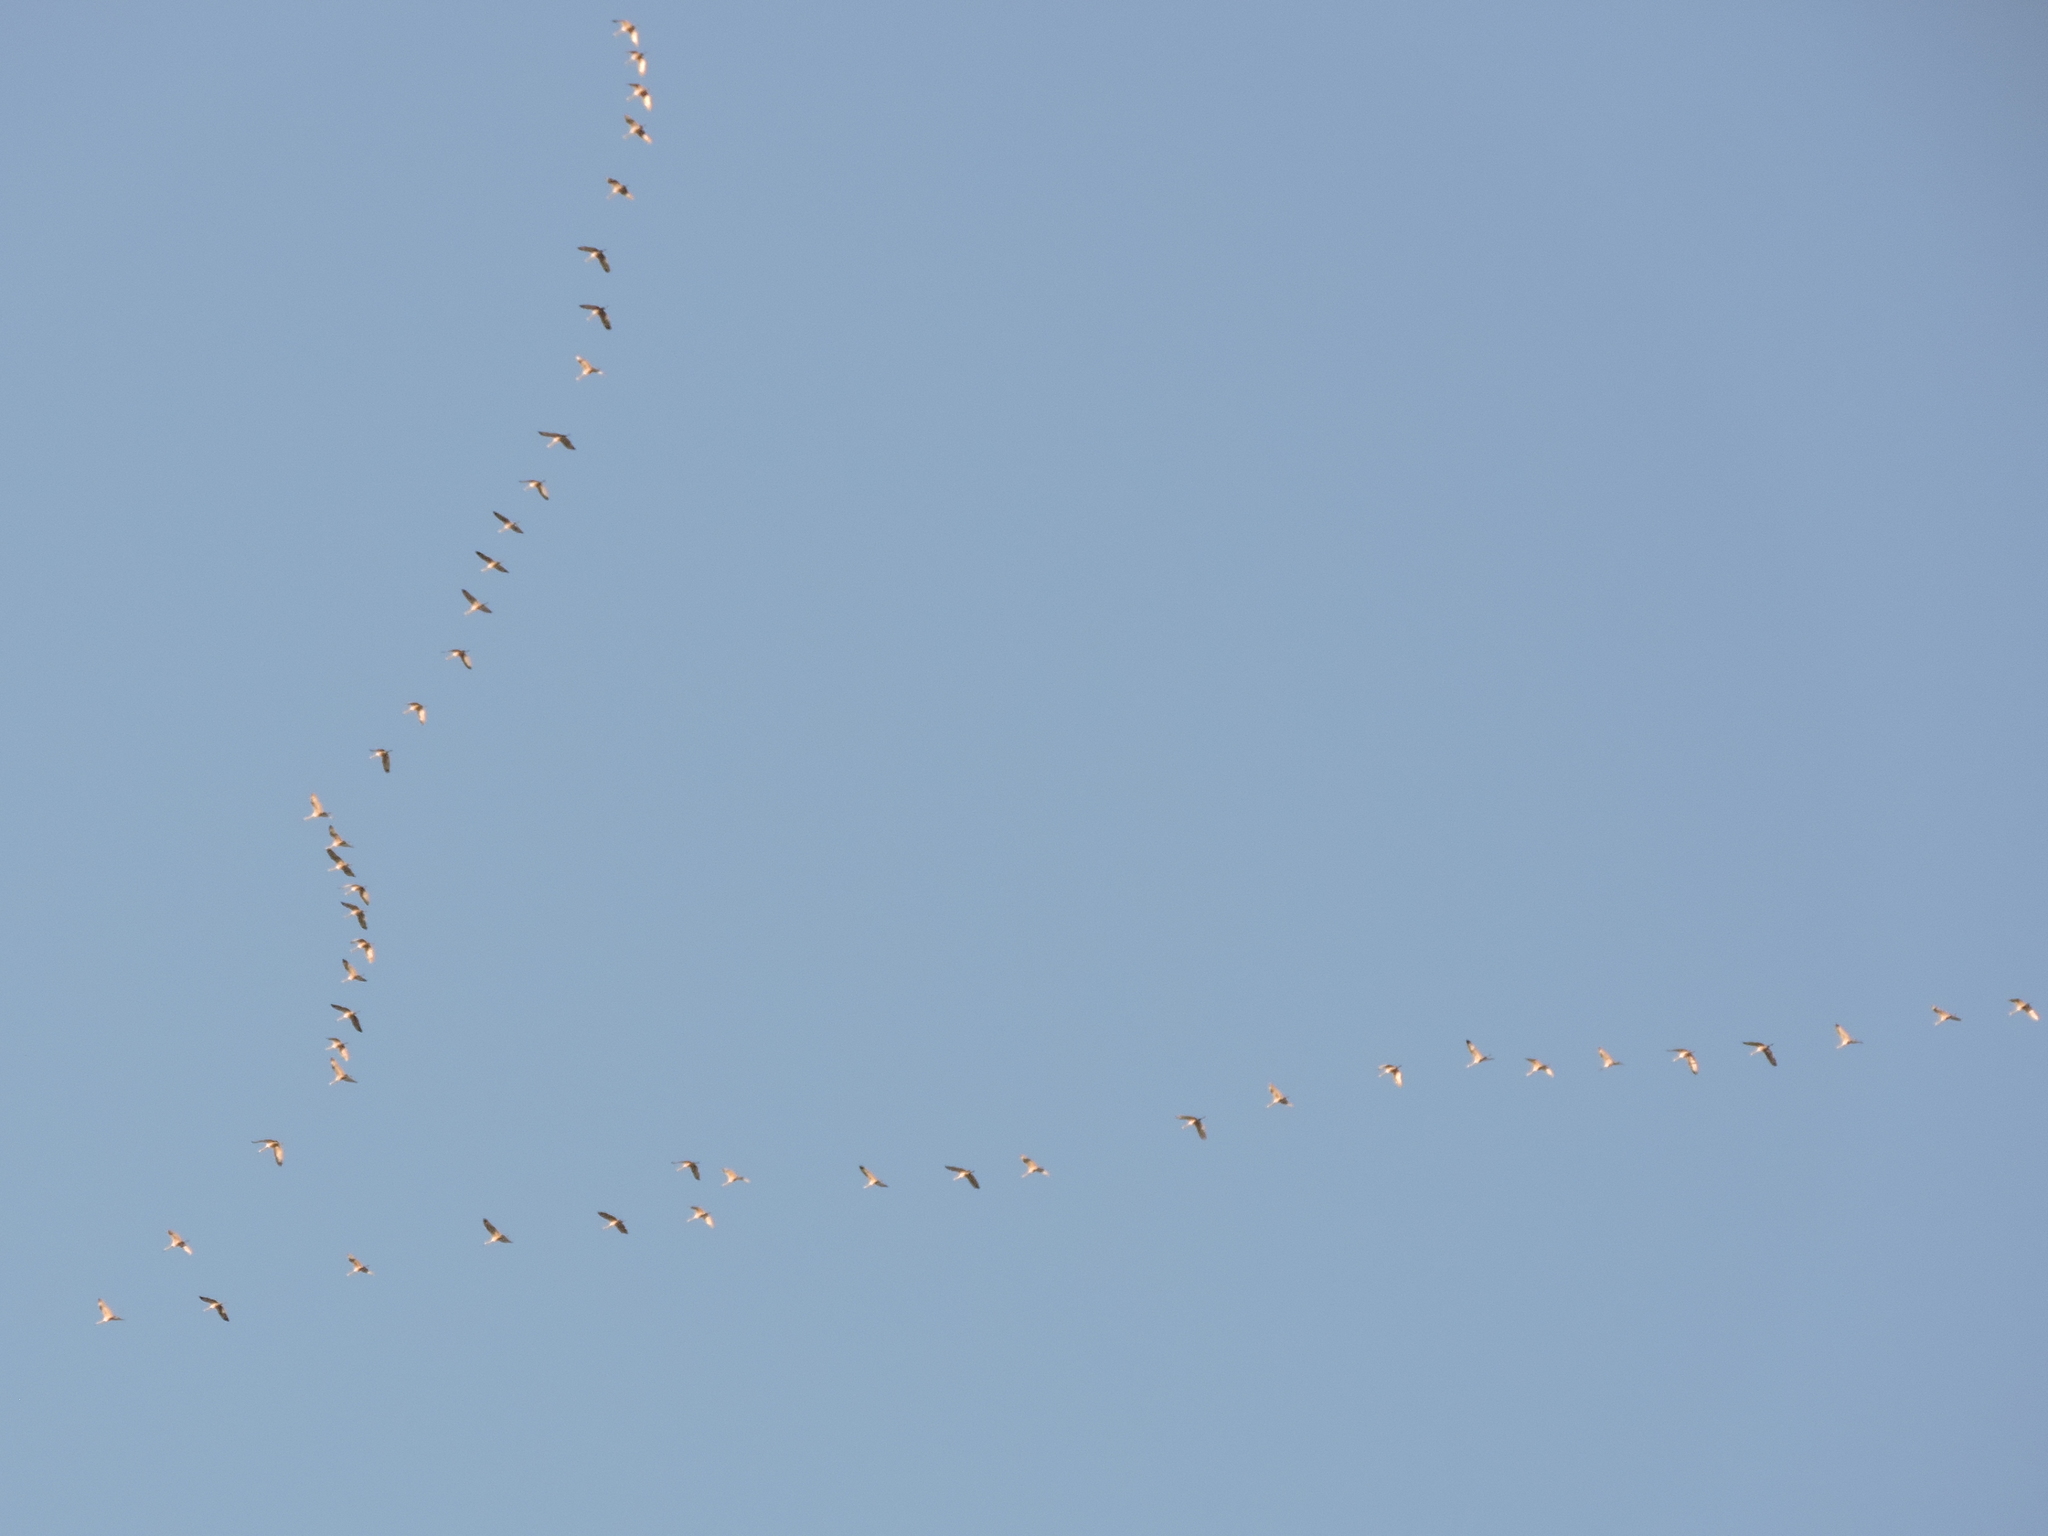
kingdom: Animalia
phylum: Chordata
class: Aves
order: Gruiformes
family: Gruidae
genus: Grus
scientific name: Grus canadensis
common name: Sandhill crane
